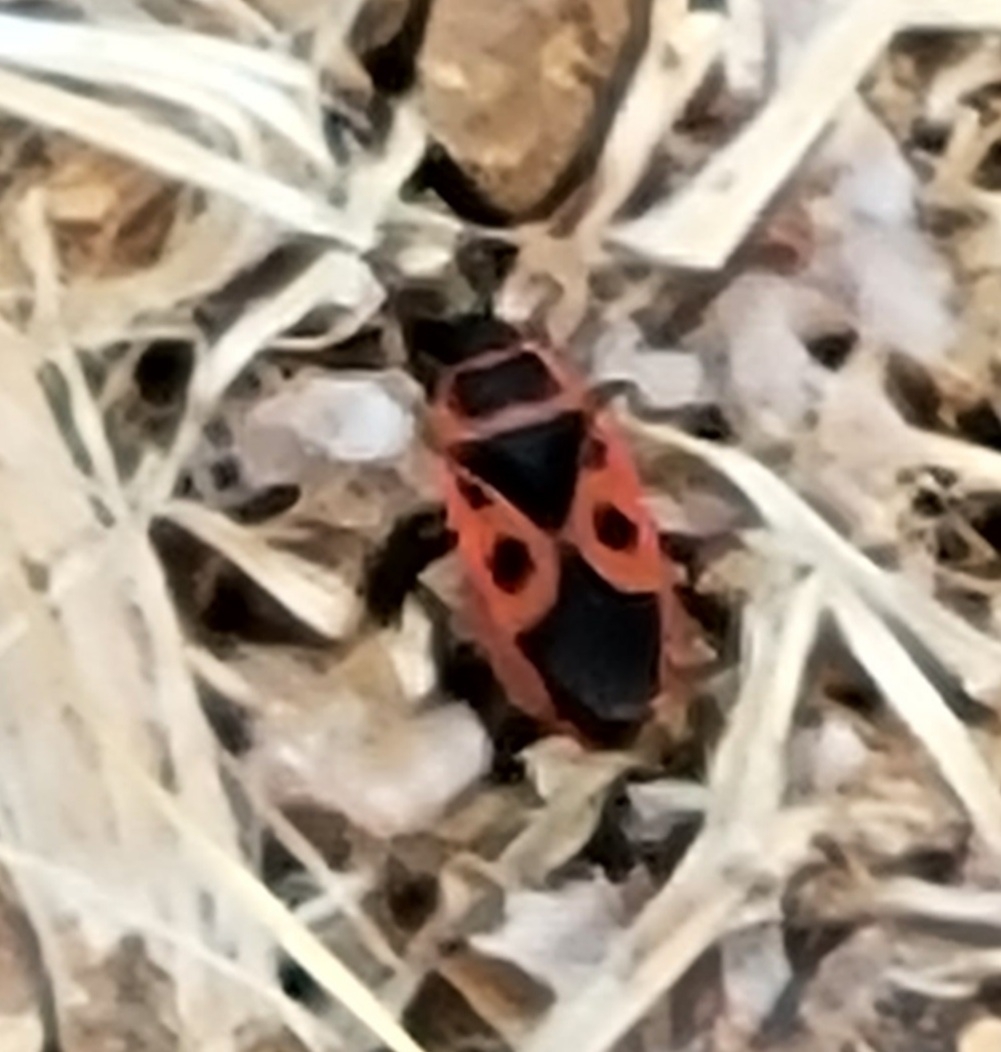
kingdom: Animalia
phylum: Arthropoda
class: Insecta
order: Hemiptera
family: Pyrrhocoridae
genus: Pyrrhocoris
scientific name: Pyrrhocoris apterus
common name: Firebug
